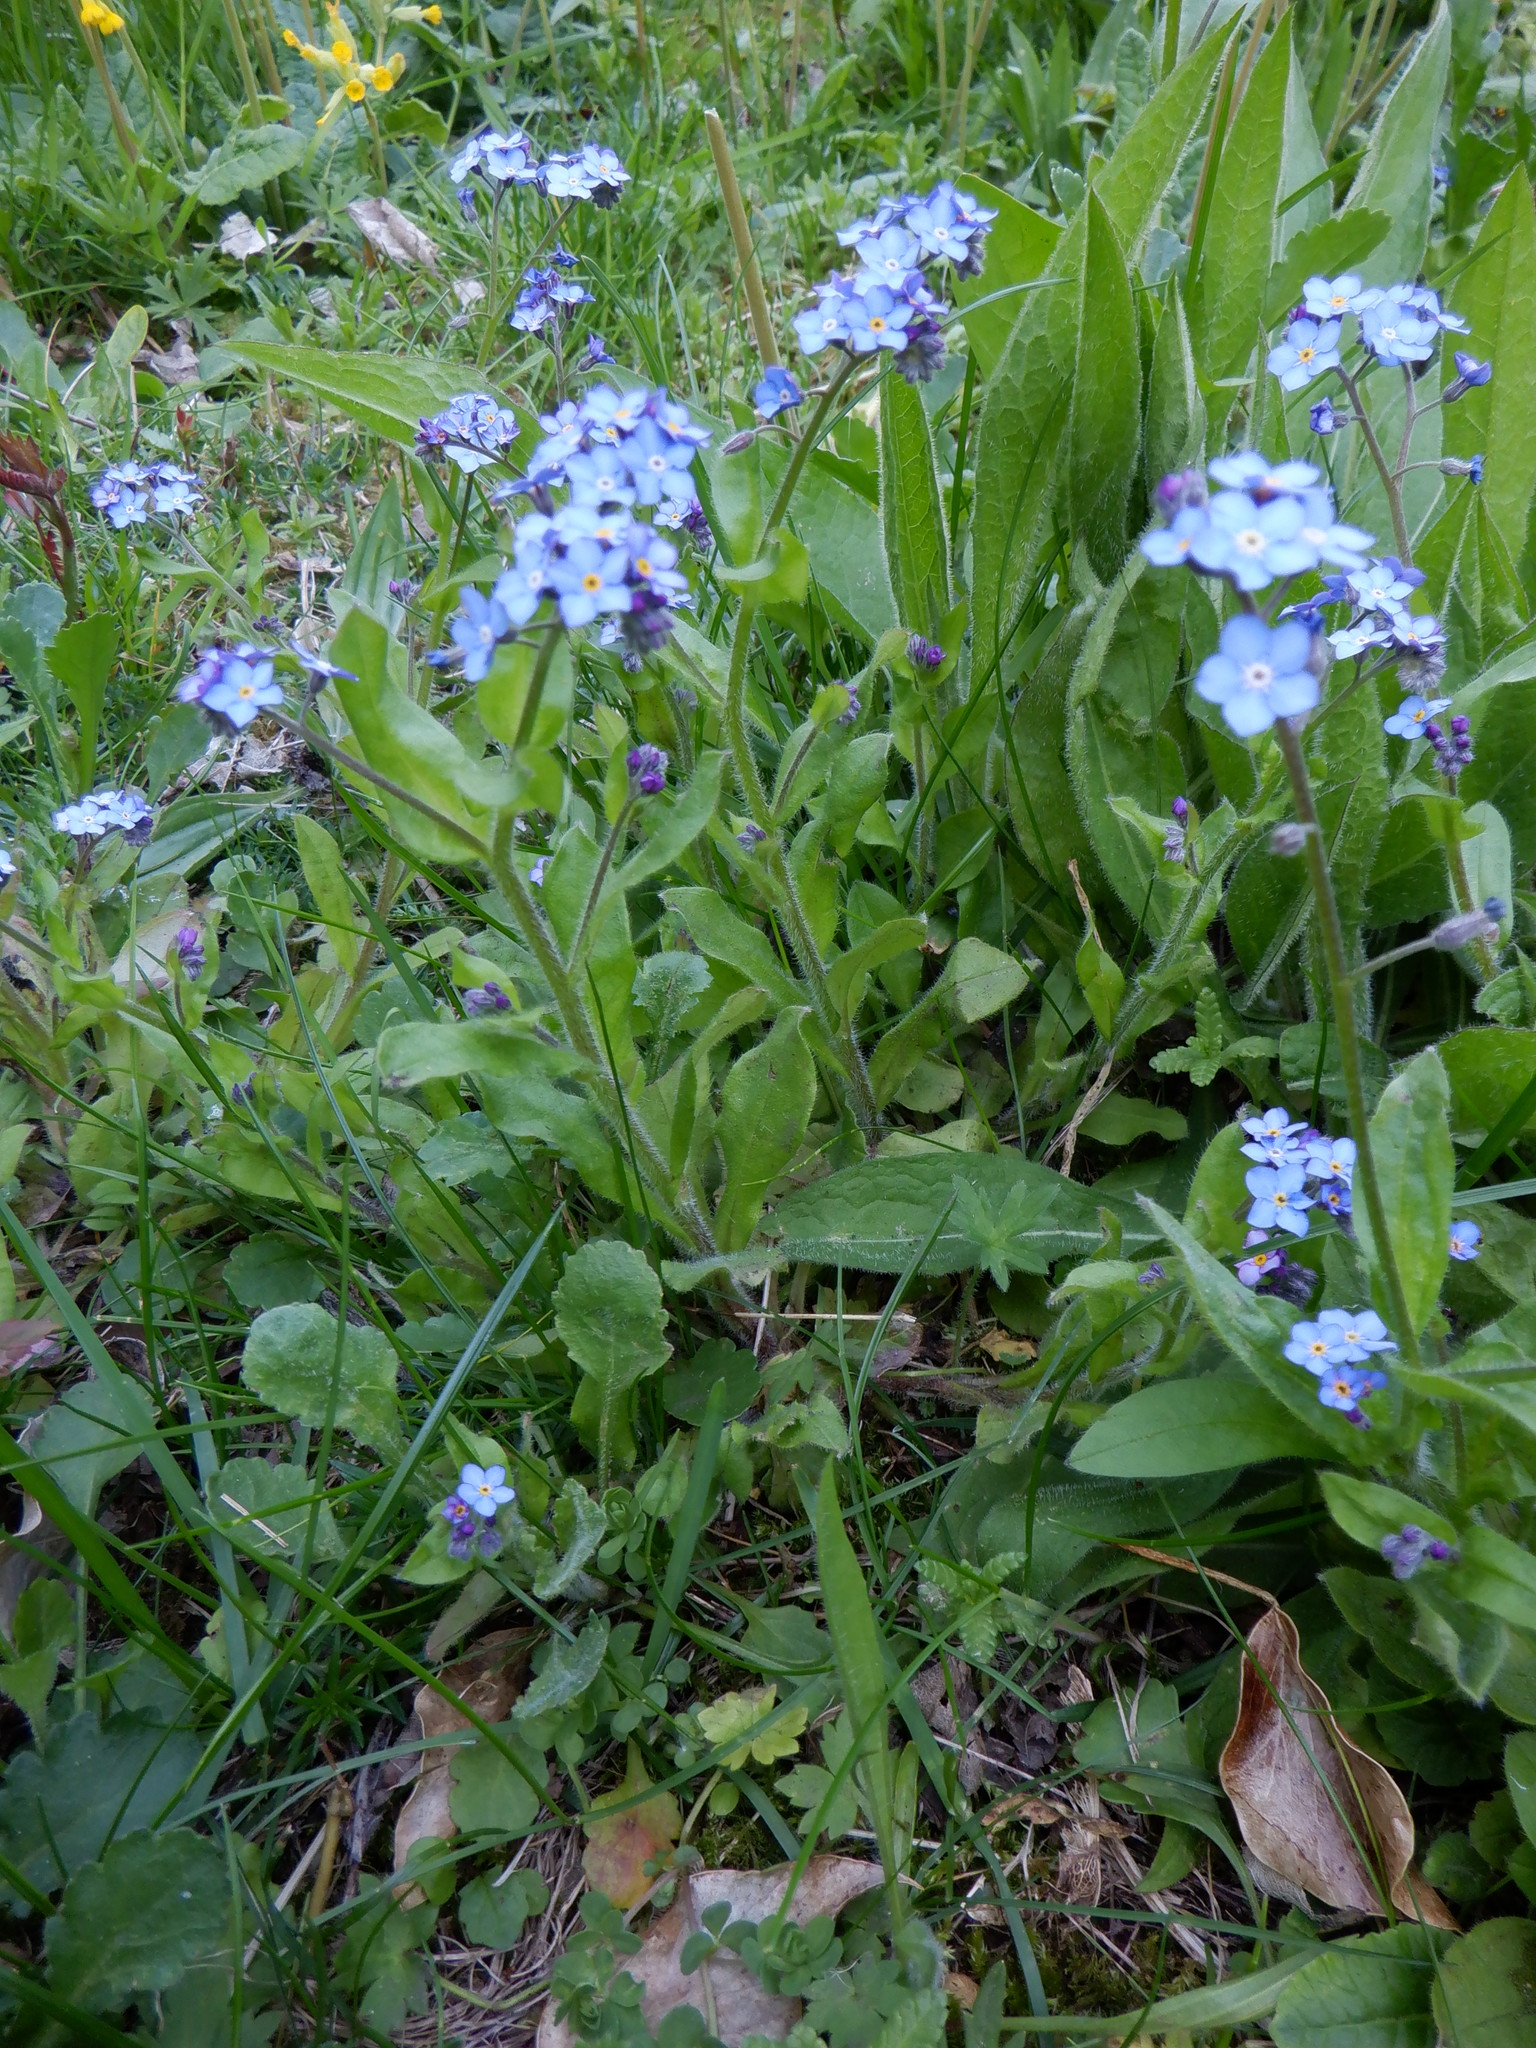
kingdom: Plantae
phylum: Tracheophyta
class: Magnoliopsida
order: Boraginales
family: Boraginaceae
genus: Myosotis
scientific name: Myosotis sylvatica
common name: Wood forget-me-not
